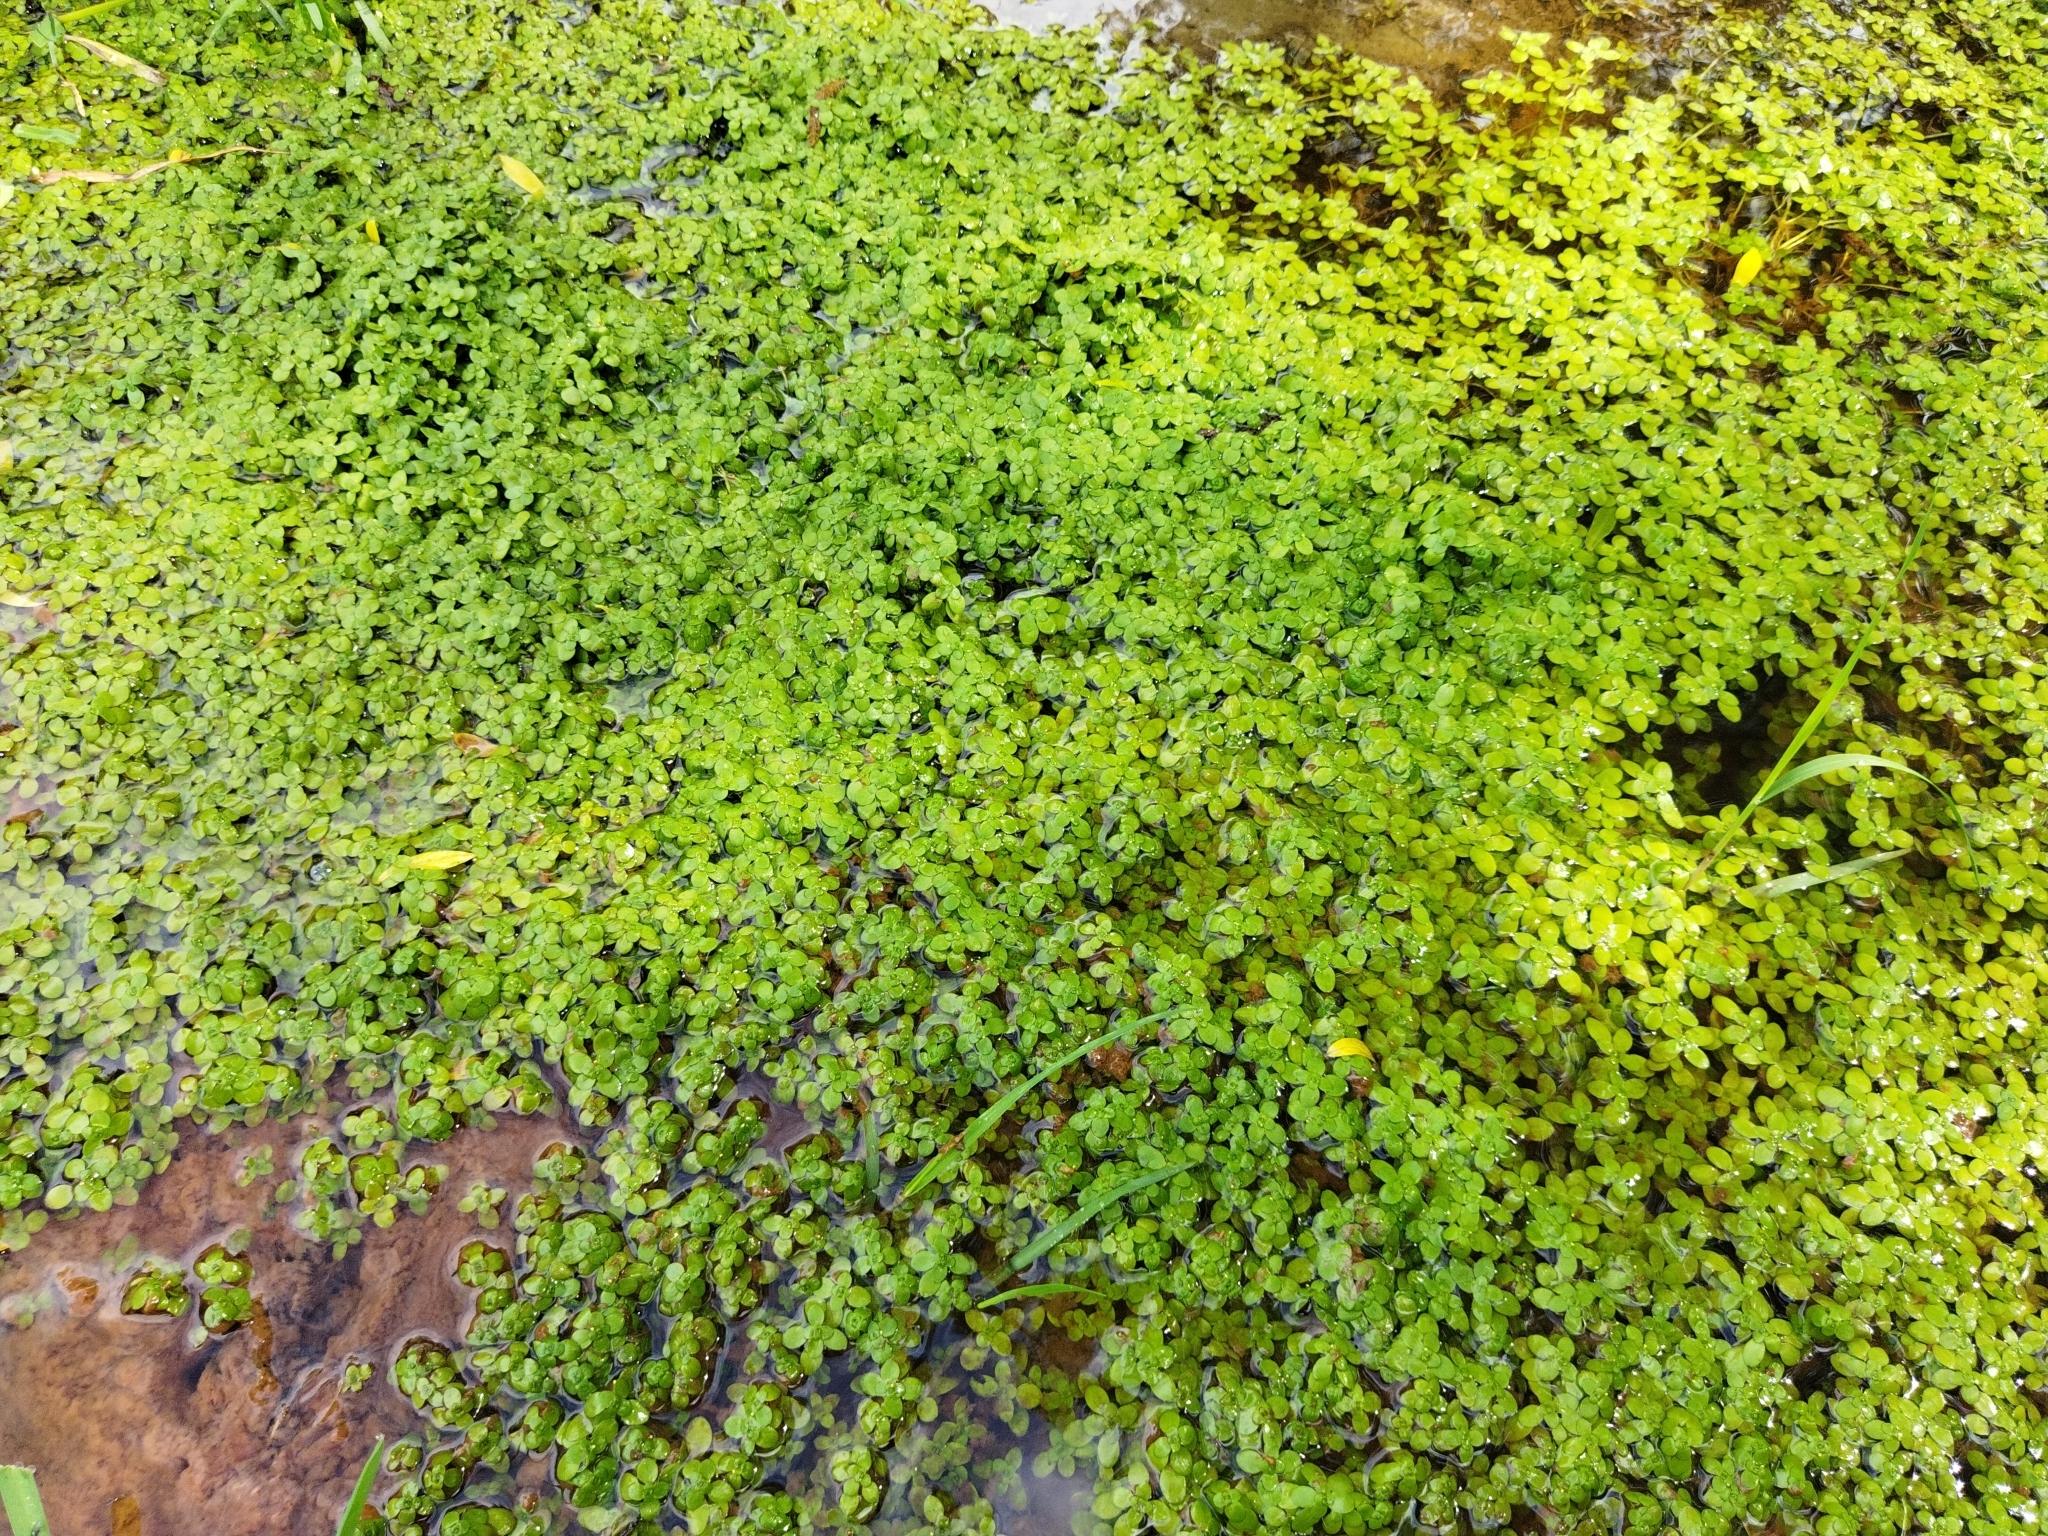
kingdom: Plantae
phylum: Tracheophyta
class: Magnoliopsida
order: Lamiales
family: Plantaginaceae
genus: Callitriche
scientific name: Callitriche stagnalis
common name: Common water-starwort
